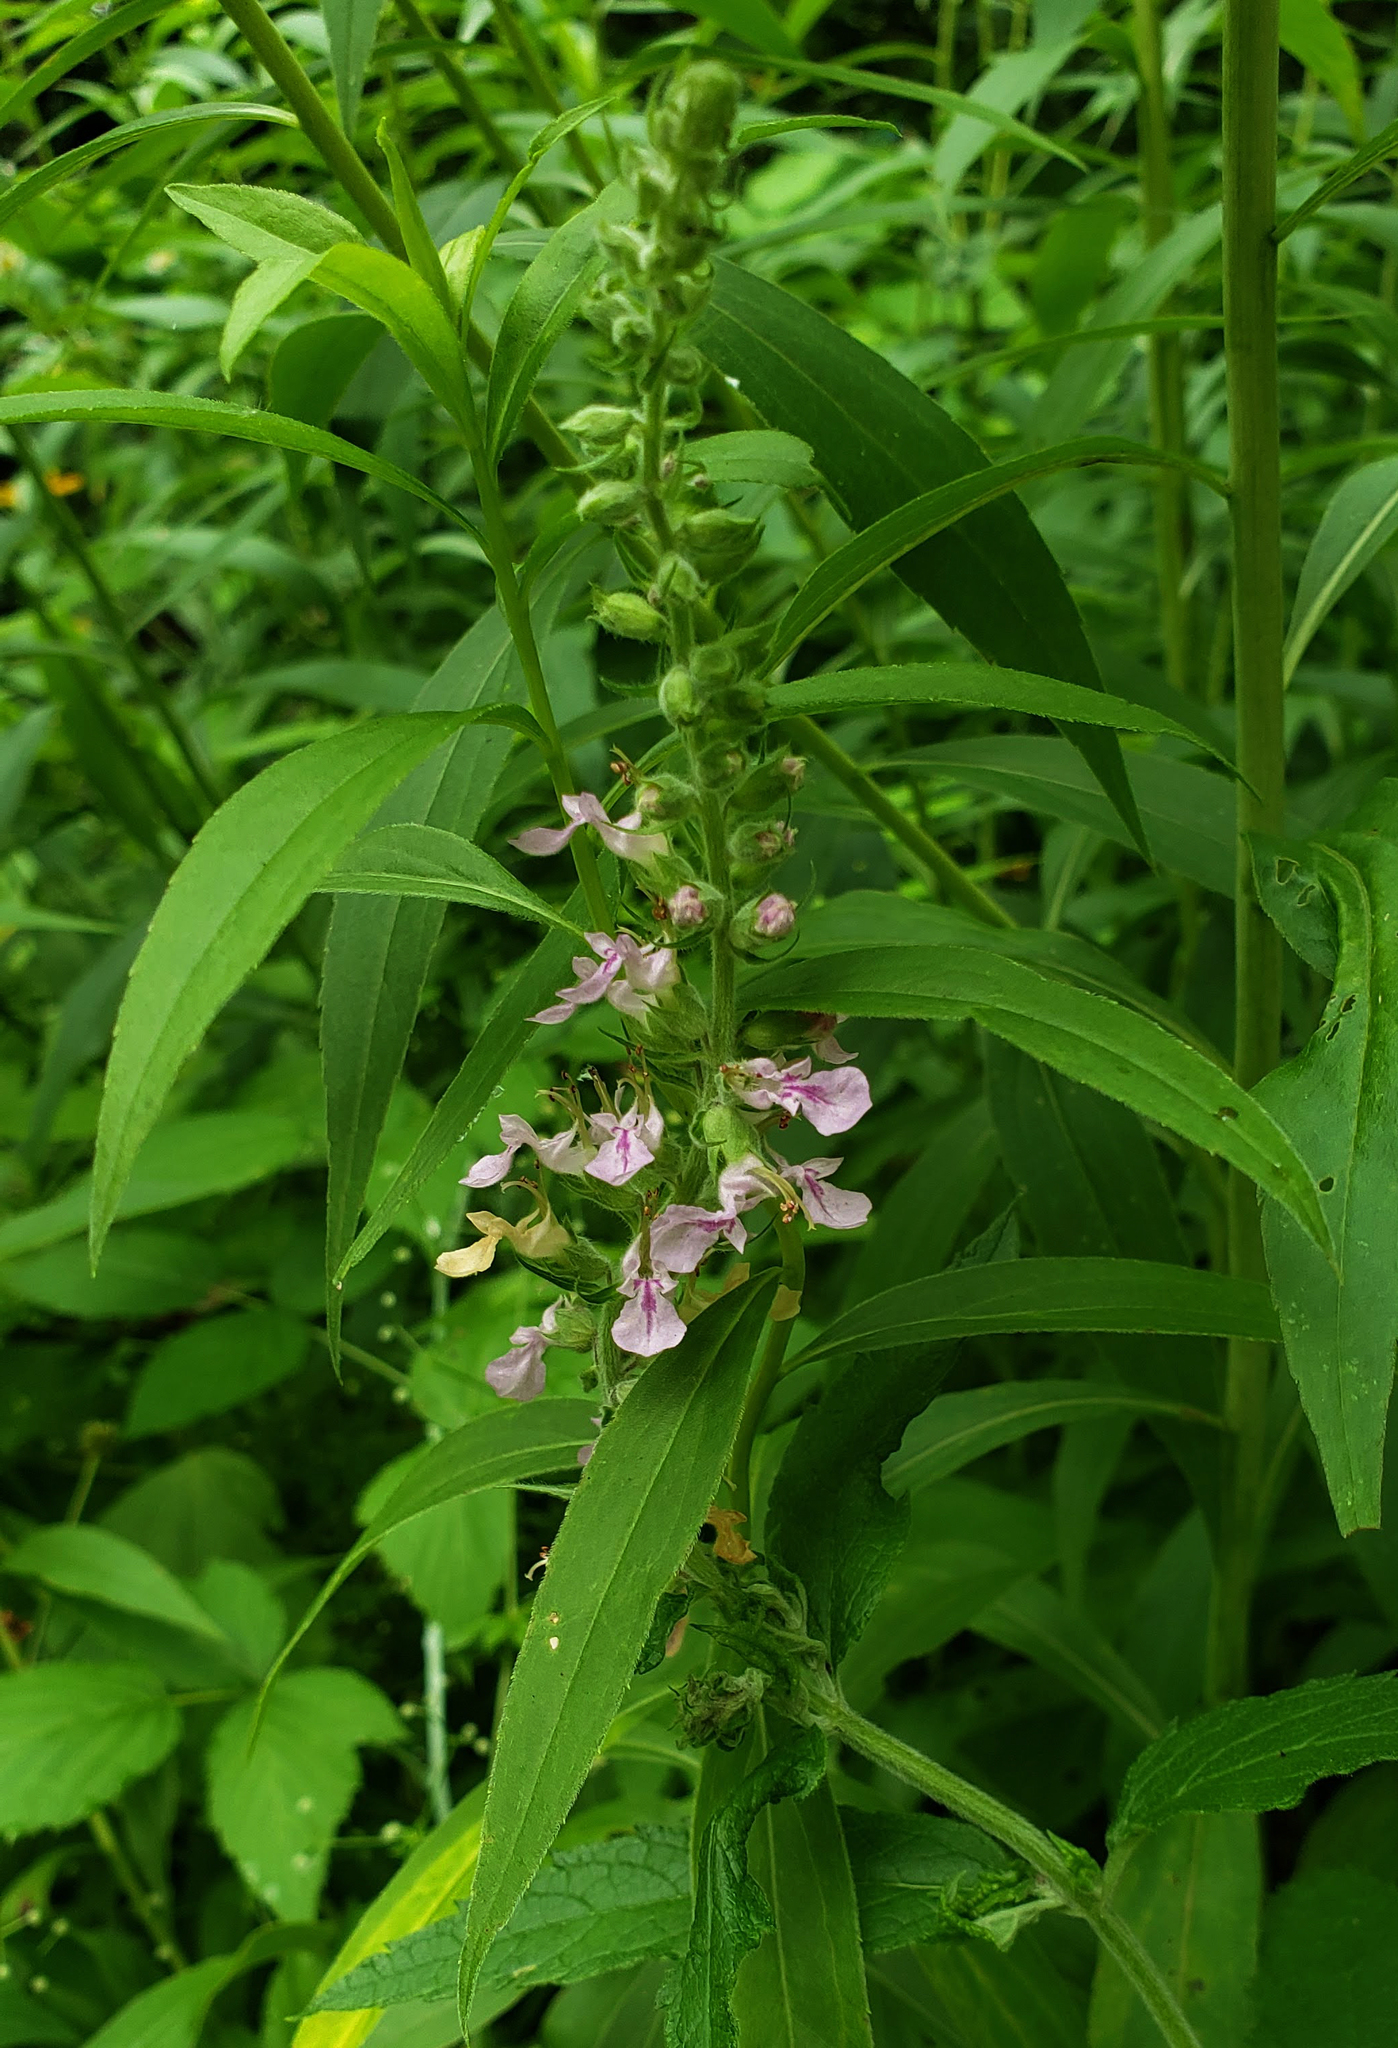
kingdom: Plantae
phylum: Tracheophyta
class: Magnoliopsida
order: Lamiales
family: Lamiaceae
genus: Teucrium
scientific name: Teucrium canadense
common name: American germander
